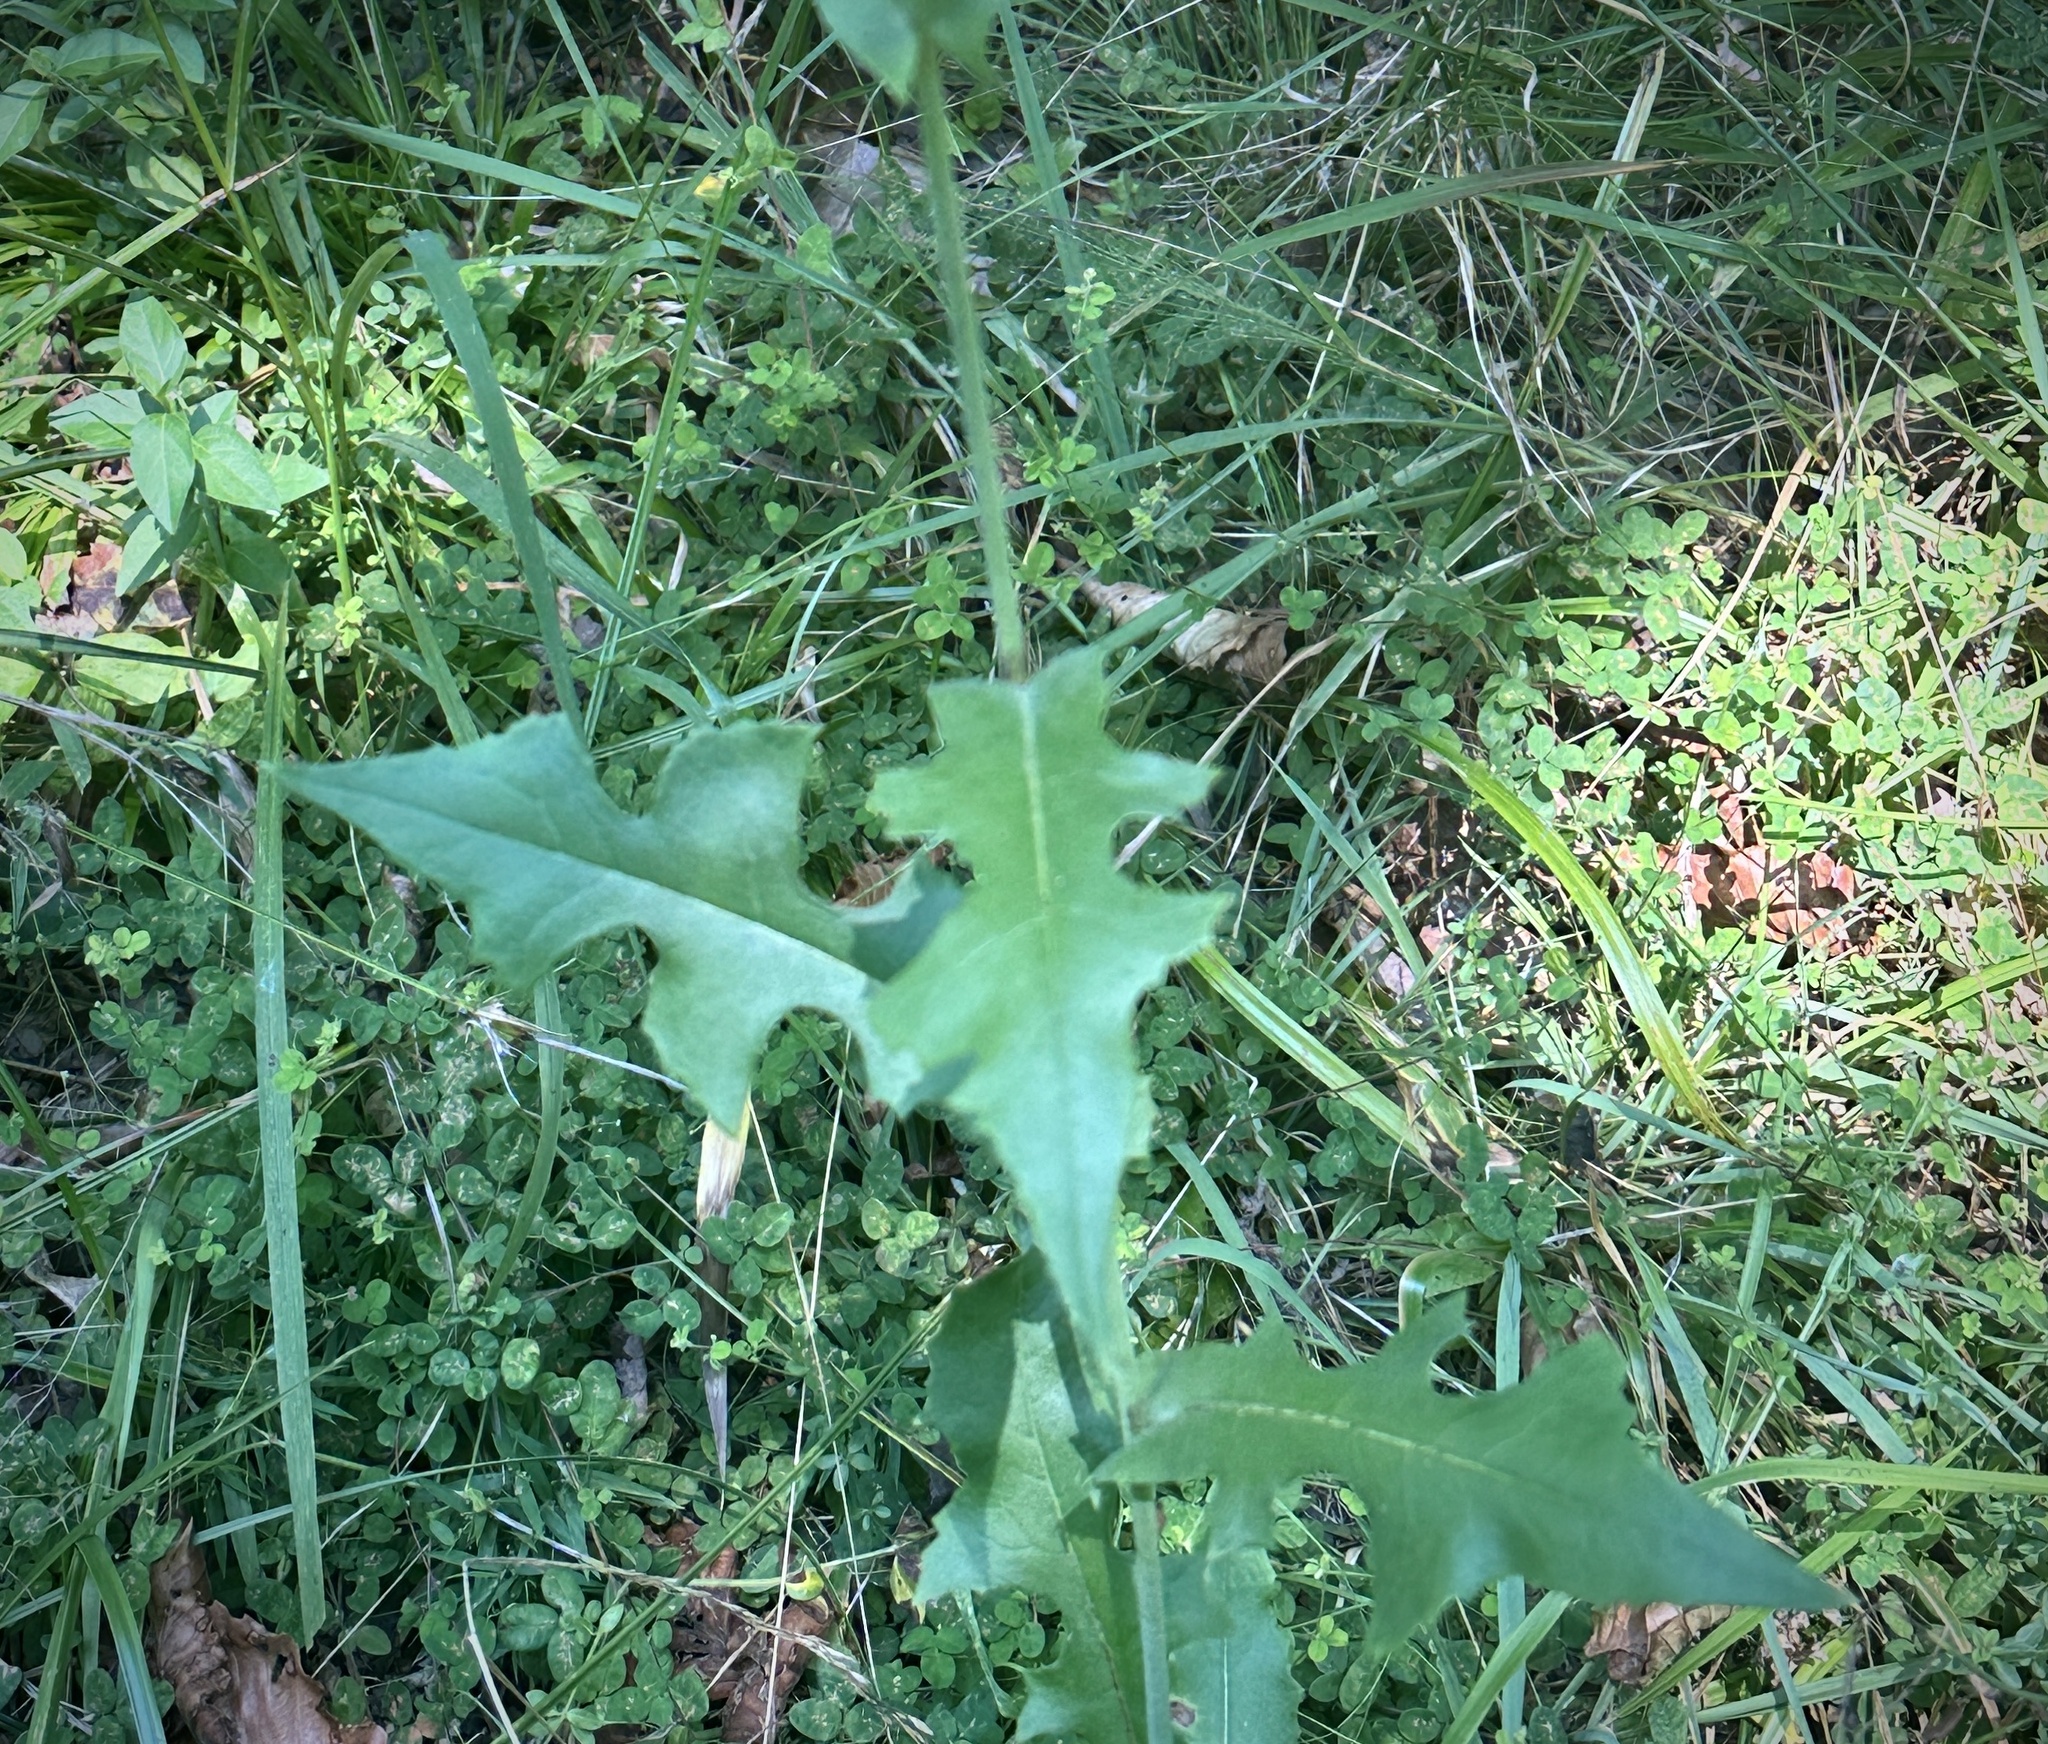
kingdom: Plantae
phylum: Tracheophyta
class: Magnoliopsida
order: Asterales
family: Asteraceae
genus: Lactuca
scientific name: Lactuca canadensis
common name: Canada lettuce
